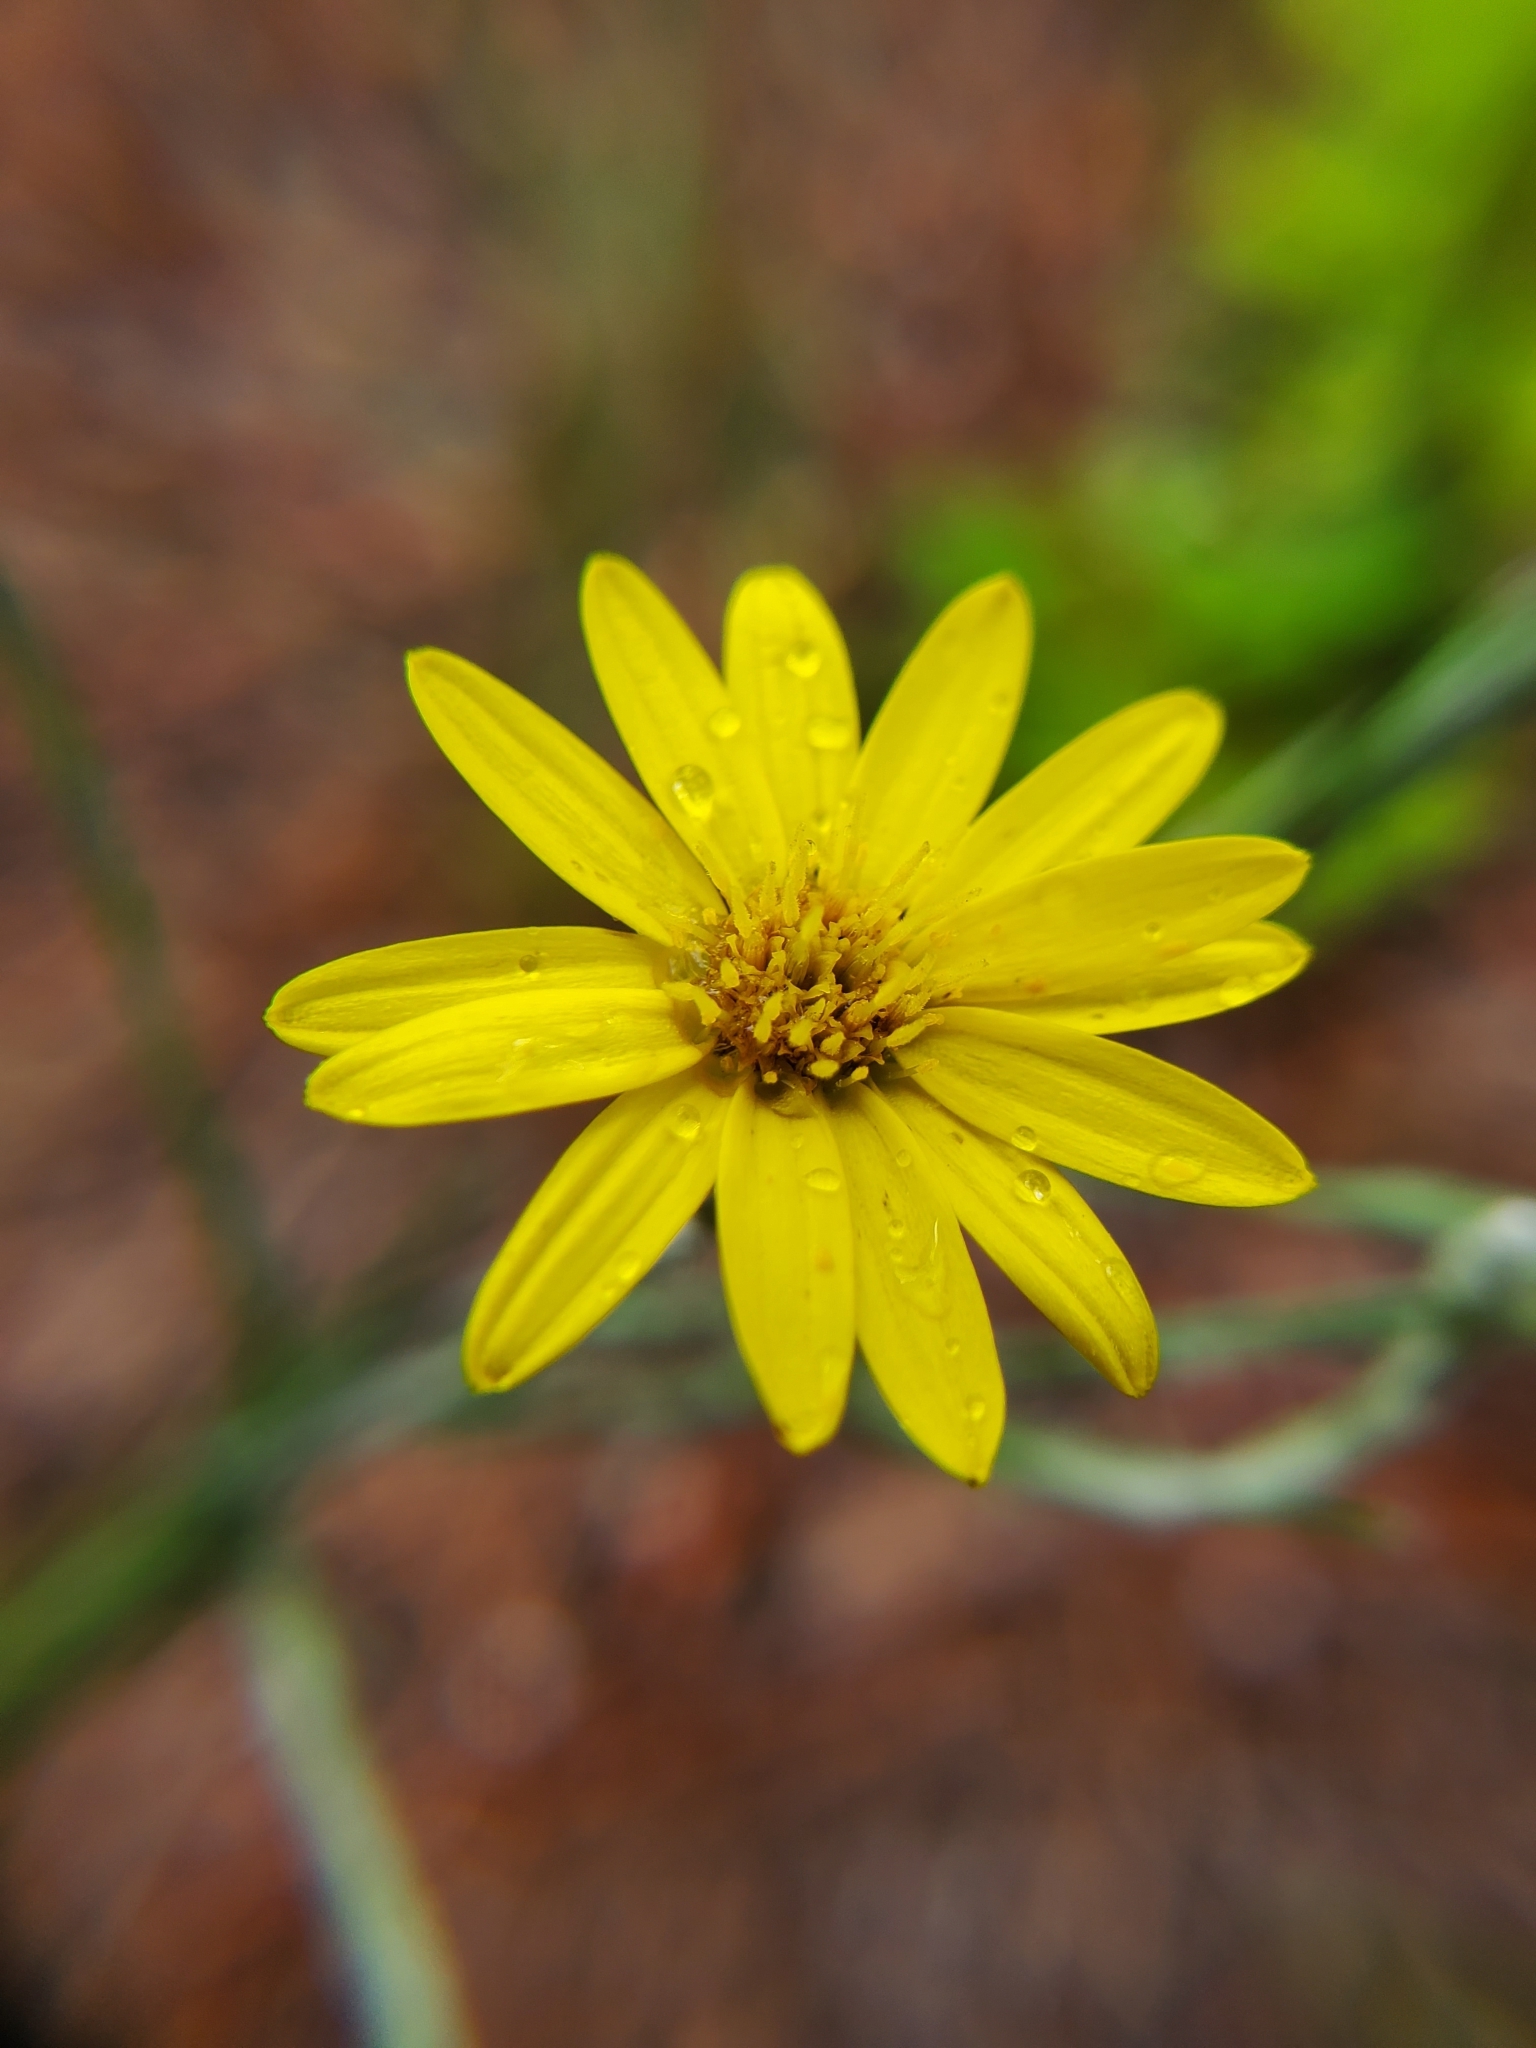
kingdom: Plantae
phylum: Tracheophyta
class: Magnoliopsida
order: Asterales
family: Asteraceae
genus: Pityopsis
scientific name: Pityopsis graminifolia
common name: Grass-leaf golden-aster
